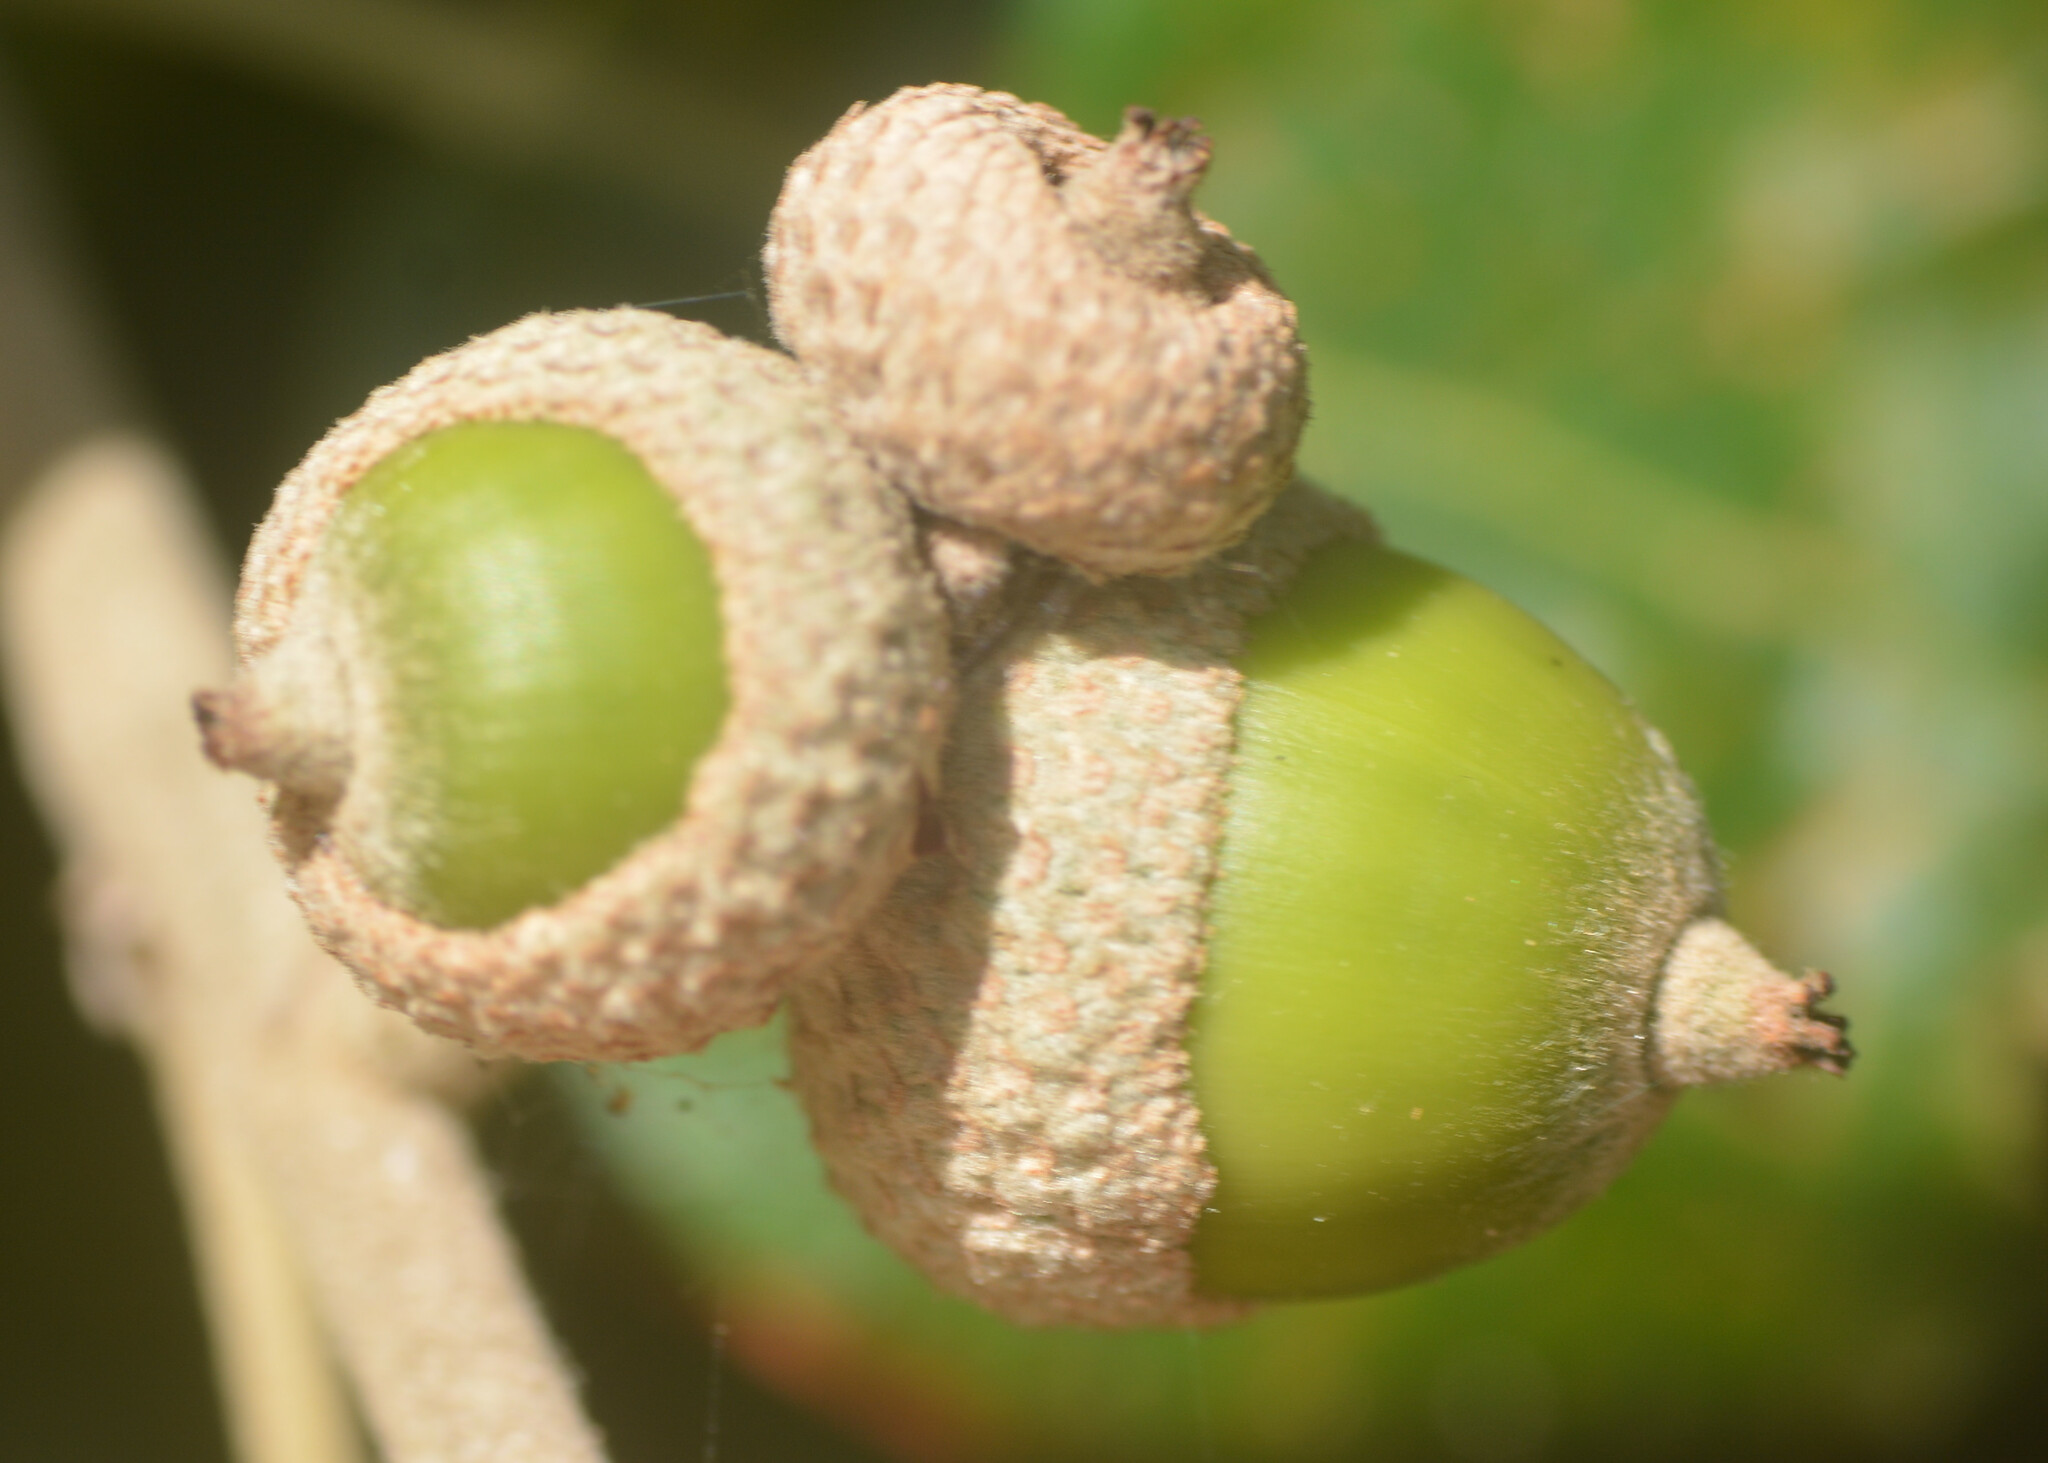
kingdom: Plantae
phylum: Tracheophyta
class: Magnoliopsida
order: Fagales
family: Fagaceae
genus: Quercus
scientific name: Quercus ilex
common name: Evergreen oak
